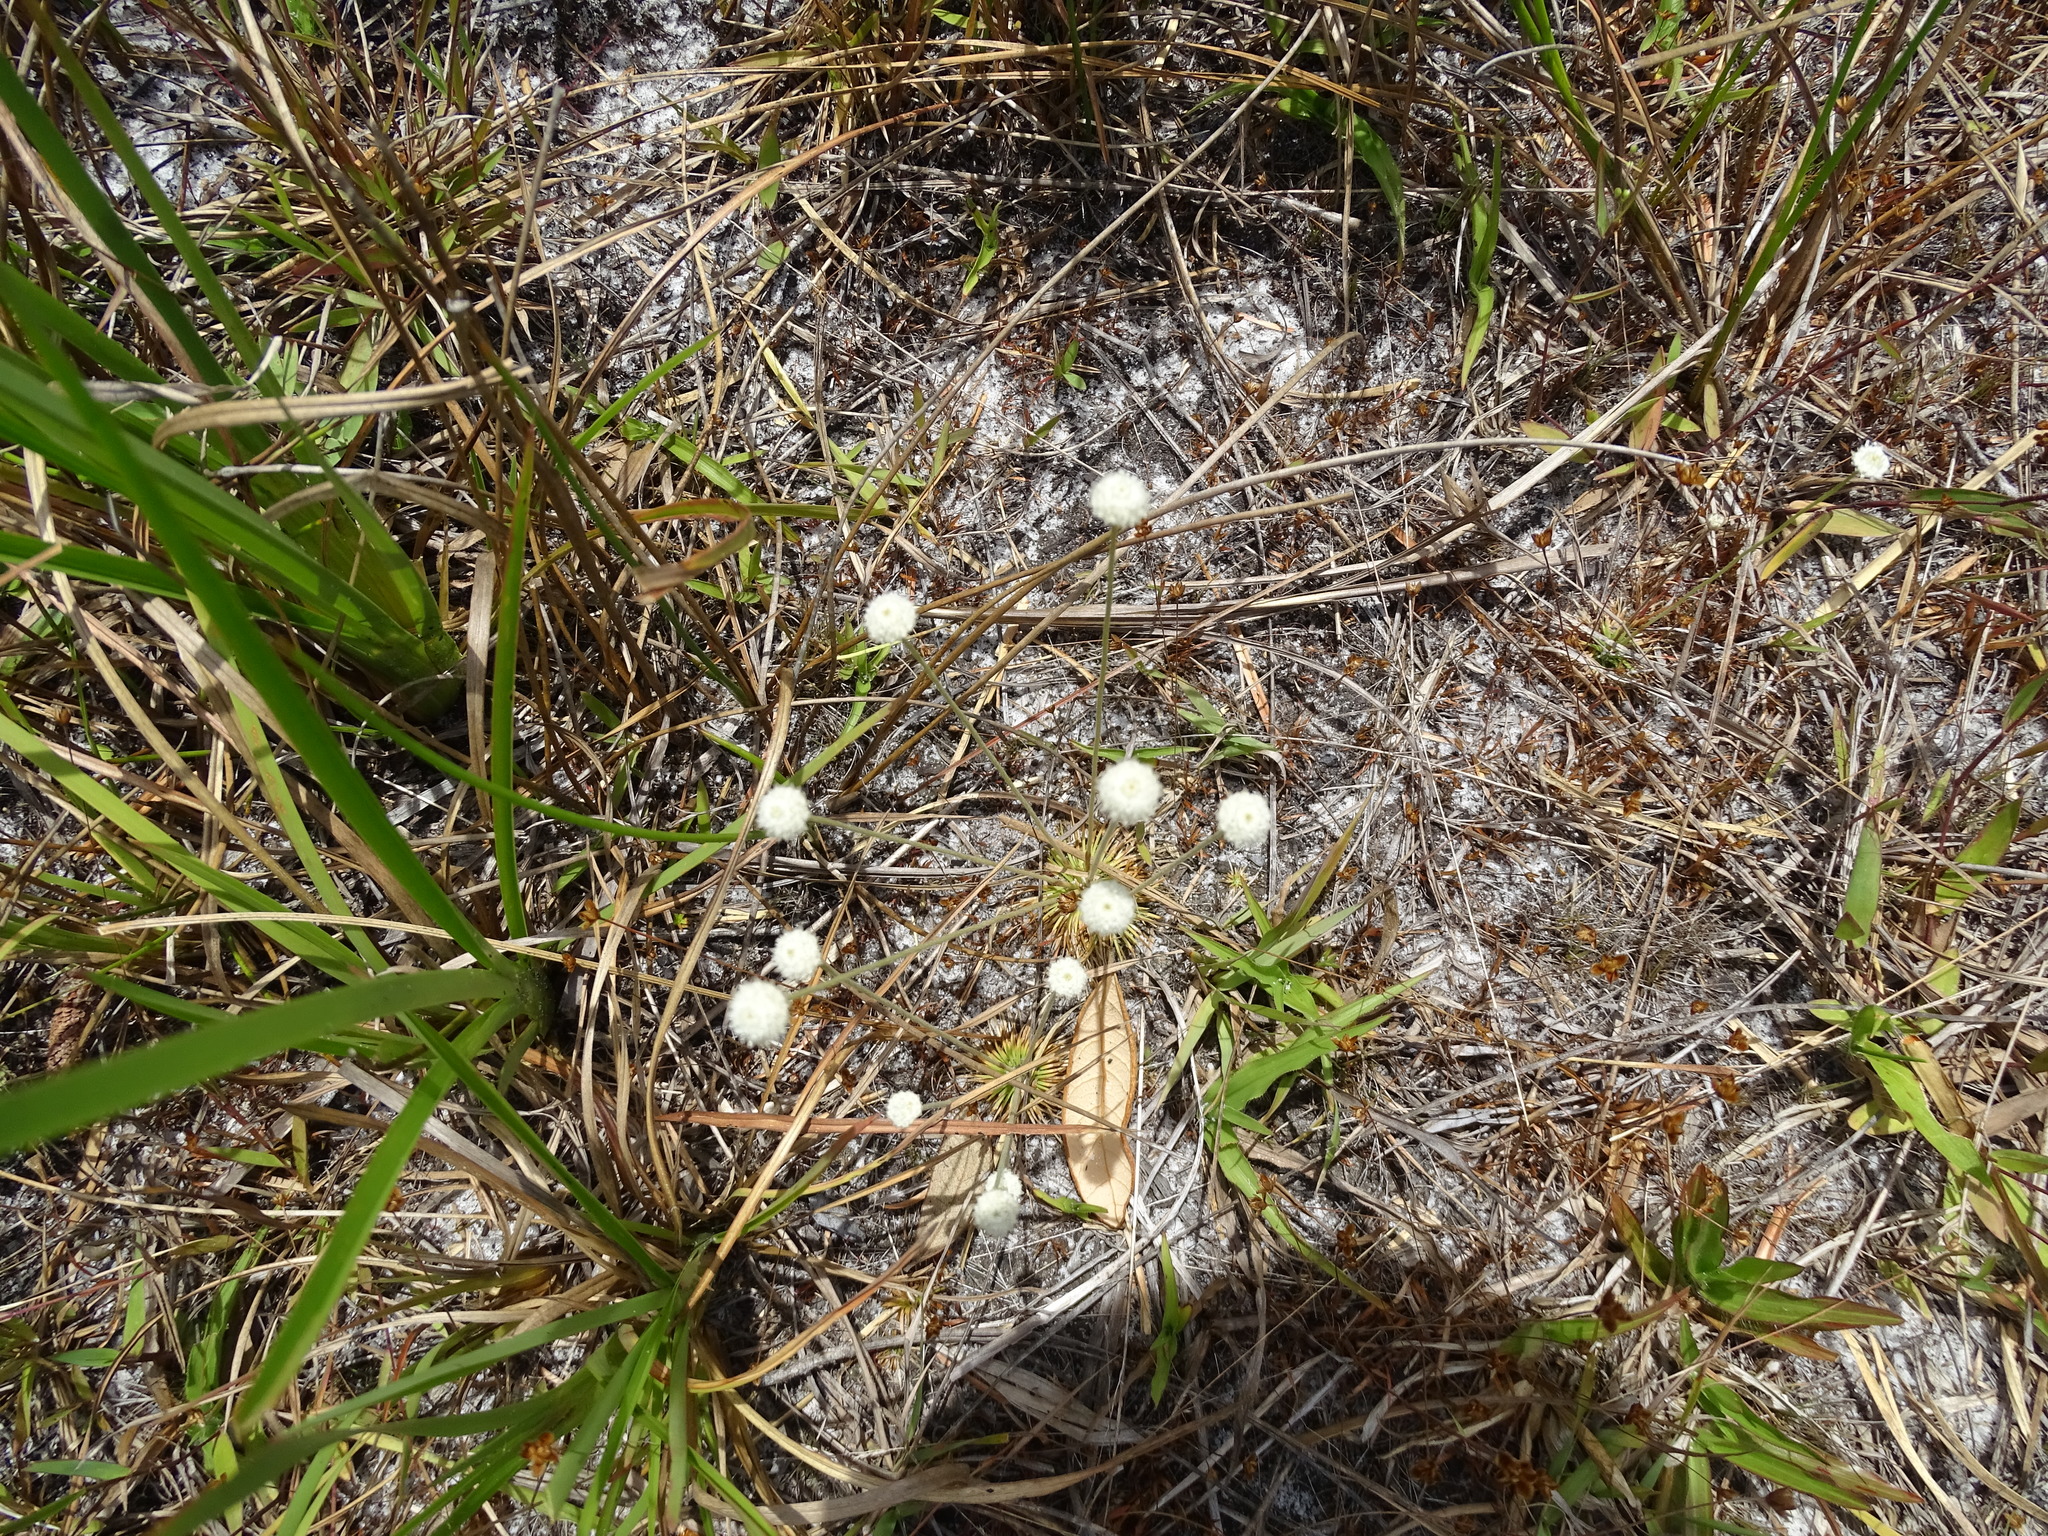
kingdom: Plantae
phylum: Tracheophyta
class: Liliopsida
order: Poales
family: Eriocaulaceae
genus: Syngonanthus
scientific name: Syngonanthus flavidulus
